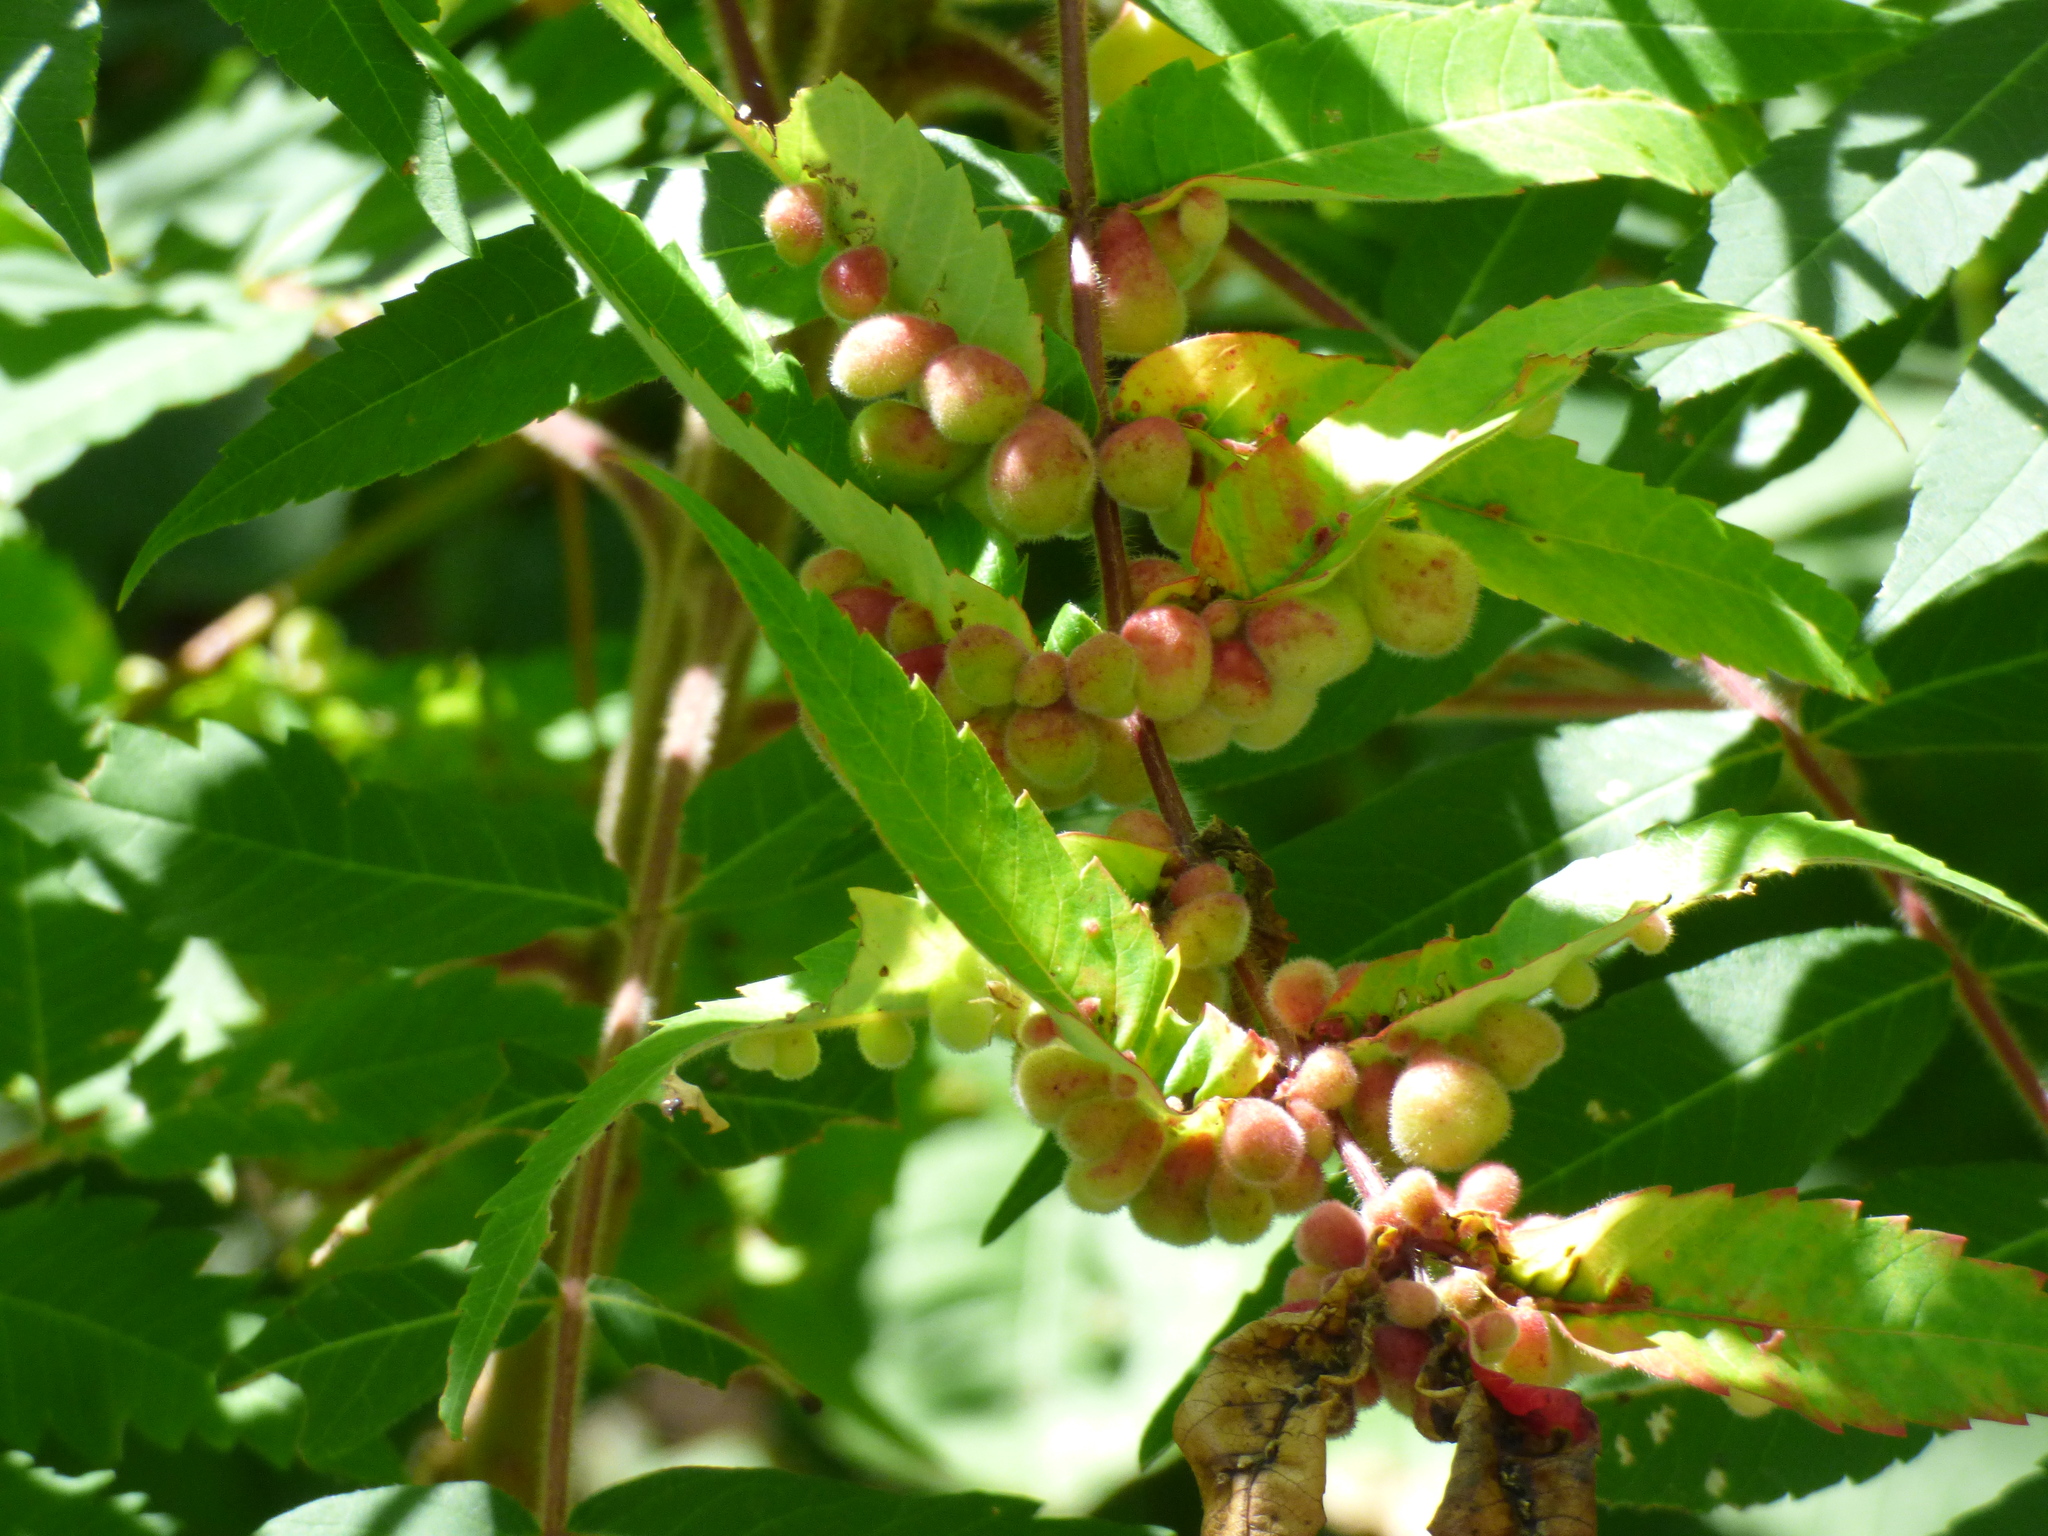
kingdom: Animalia
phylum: Arthropoda
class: Insecta
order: Hemiptera
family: Aphididae
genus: Melaphis
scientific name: Melaphis rhois
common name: Sumac gall aphid
